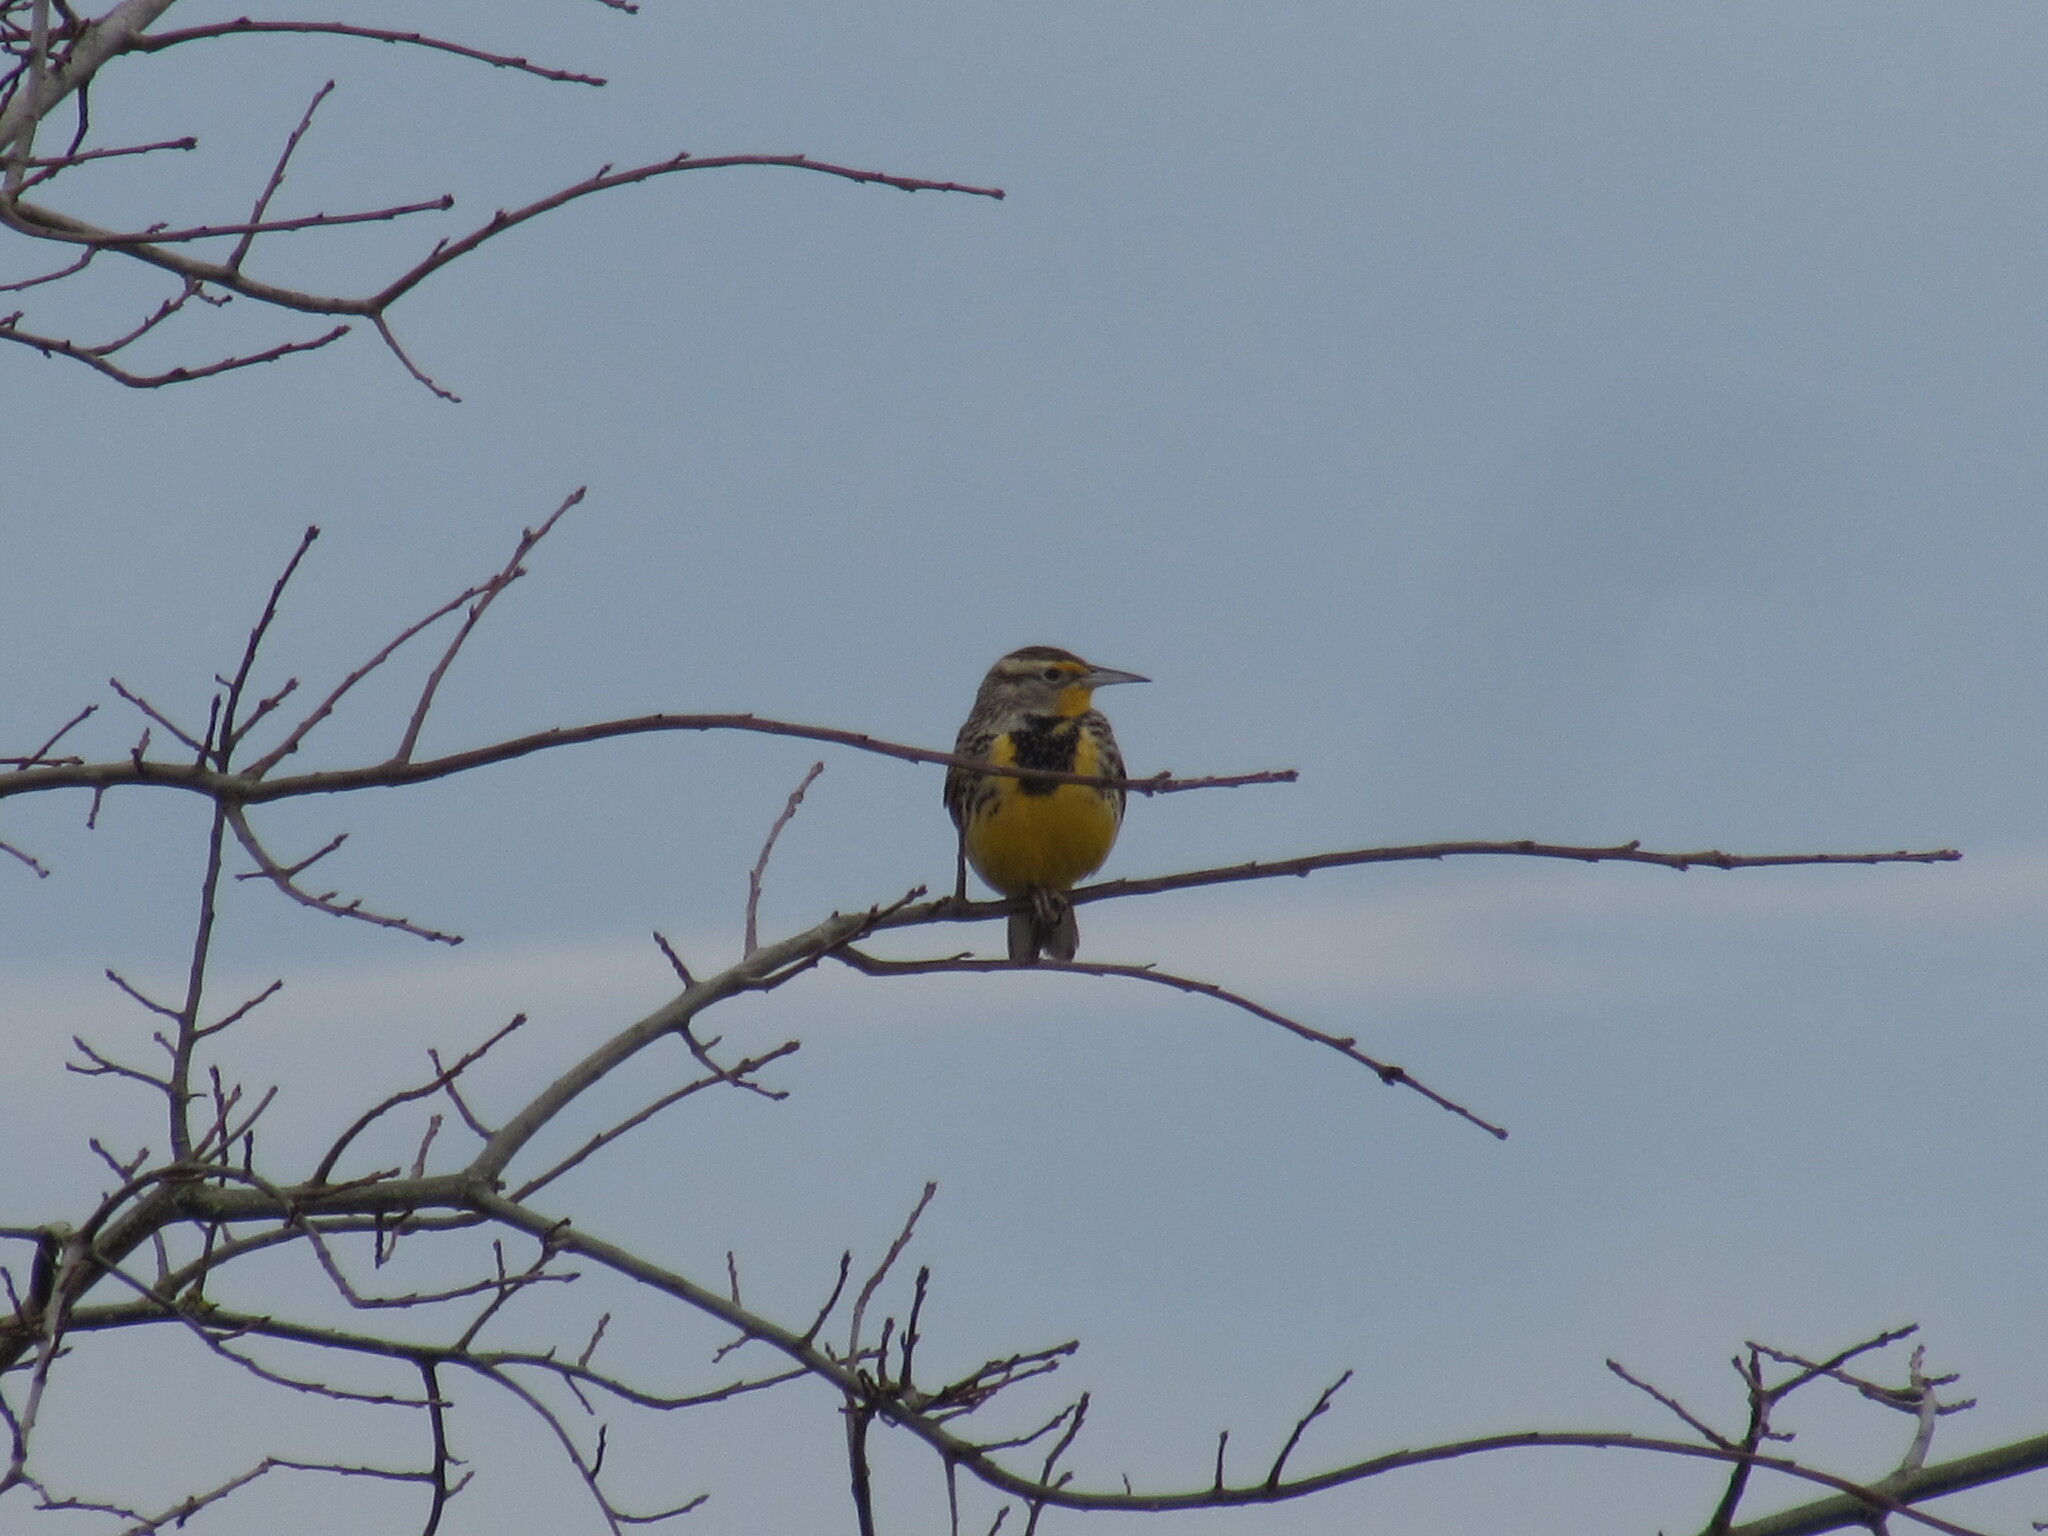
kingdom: Animalia
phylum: Chordata
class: Aves
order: Passeriformes
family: Icteridae
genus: Sturnella
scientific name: Sturnella neglecta
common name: Western meadowlark
